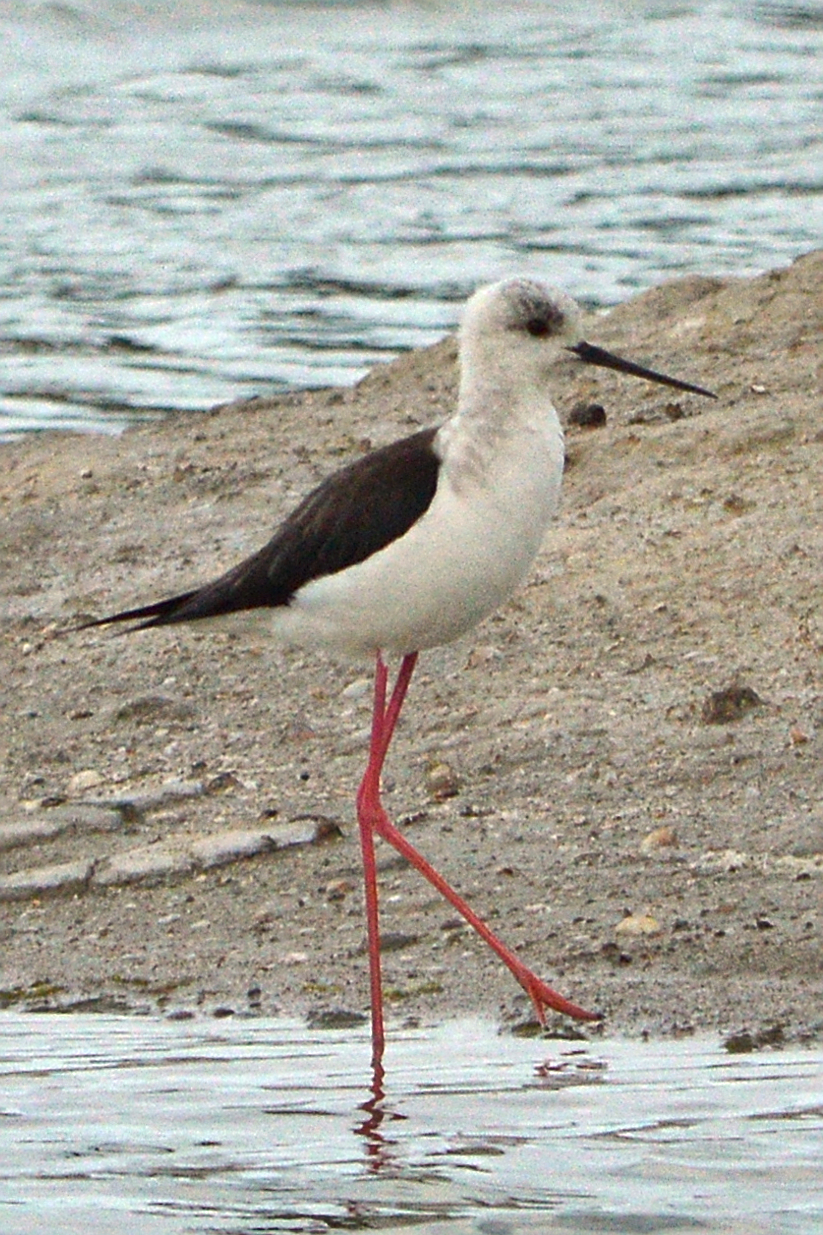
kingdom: Animalia
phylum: Chordata
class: Aves
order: Charadriiformes
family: Recurvirostridae
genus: Himantopus
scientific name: Himantopus himantopus
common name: Black-winged stilt
